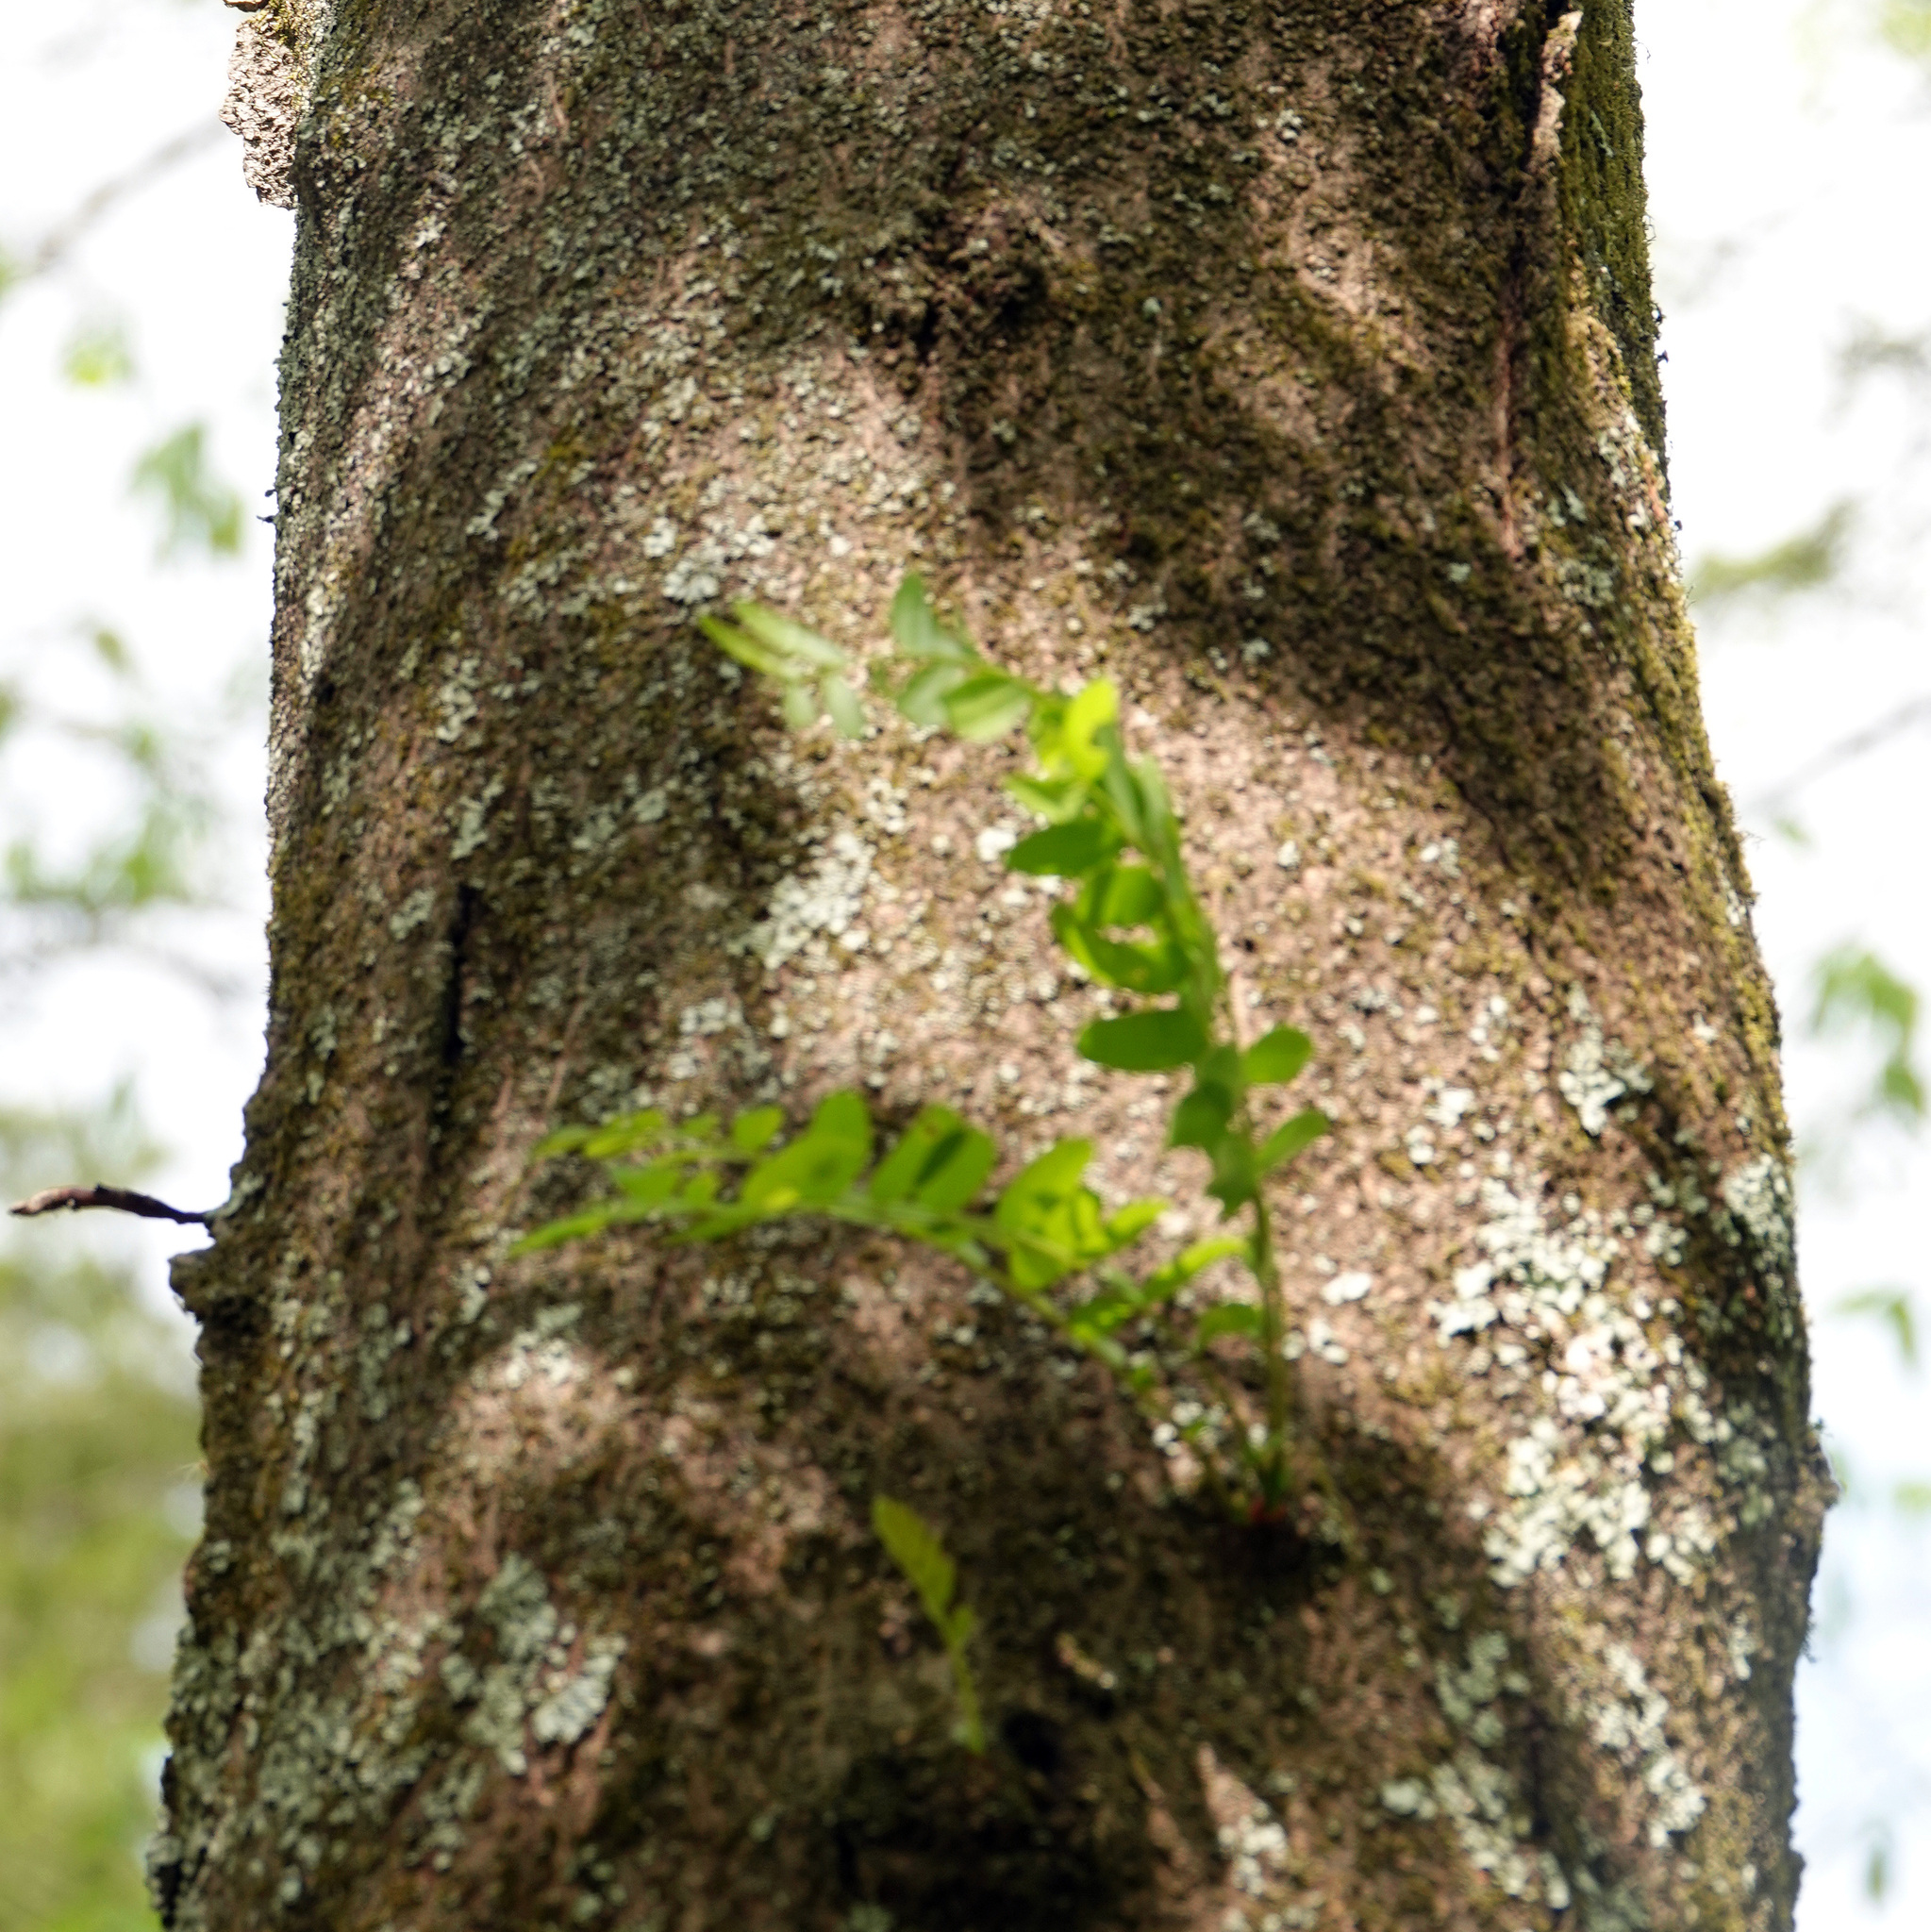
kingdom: Plantae
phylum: Tracheophyta
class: Magnoliopsida
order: Fabales
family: Fabaceae
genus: Gleditsia
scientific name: Gleditsia triacanthos
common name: Common honeylocust
